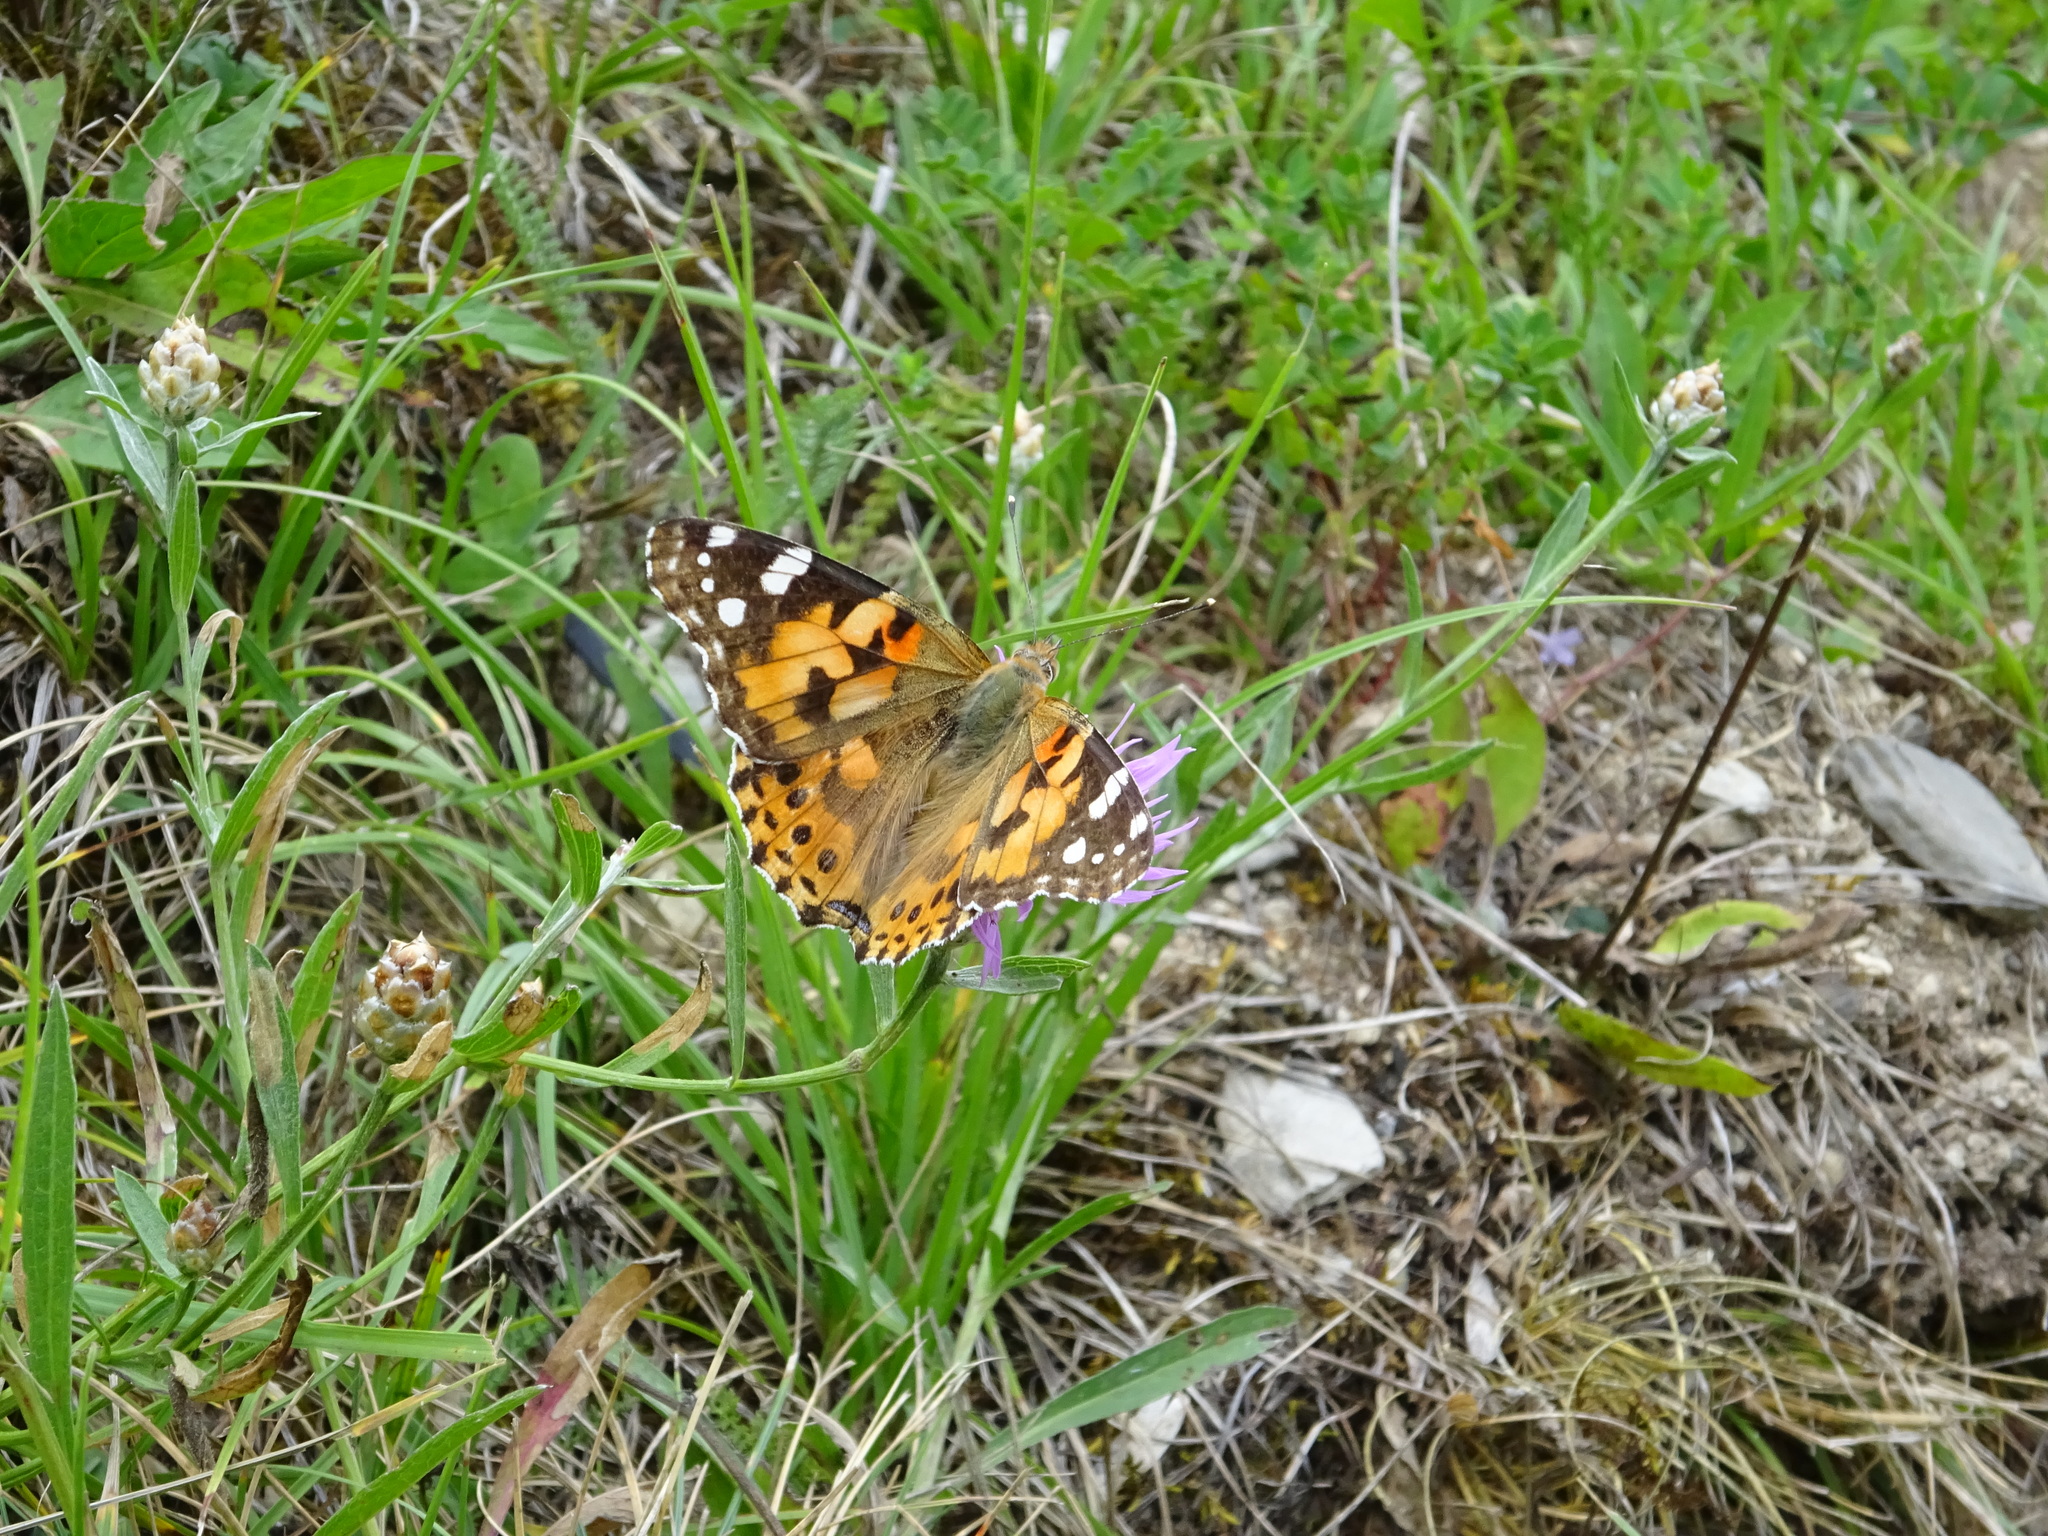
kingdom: Animalia
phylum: Arthropoda
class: Insecta
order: Lepidoptera
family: Nymphalidae
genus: Vanessa
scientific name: Vanessa cardui
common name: Painted lady
